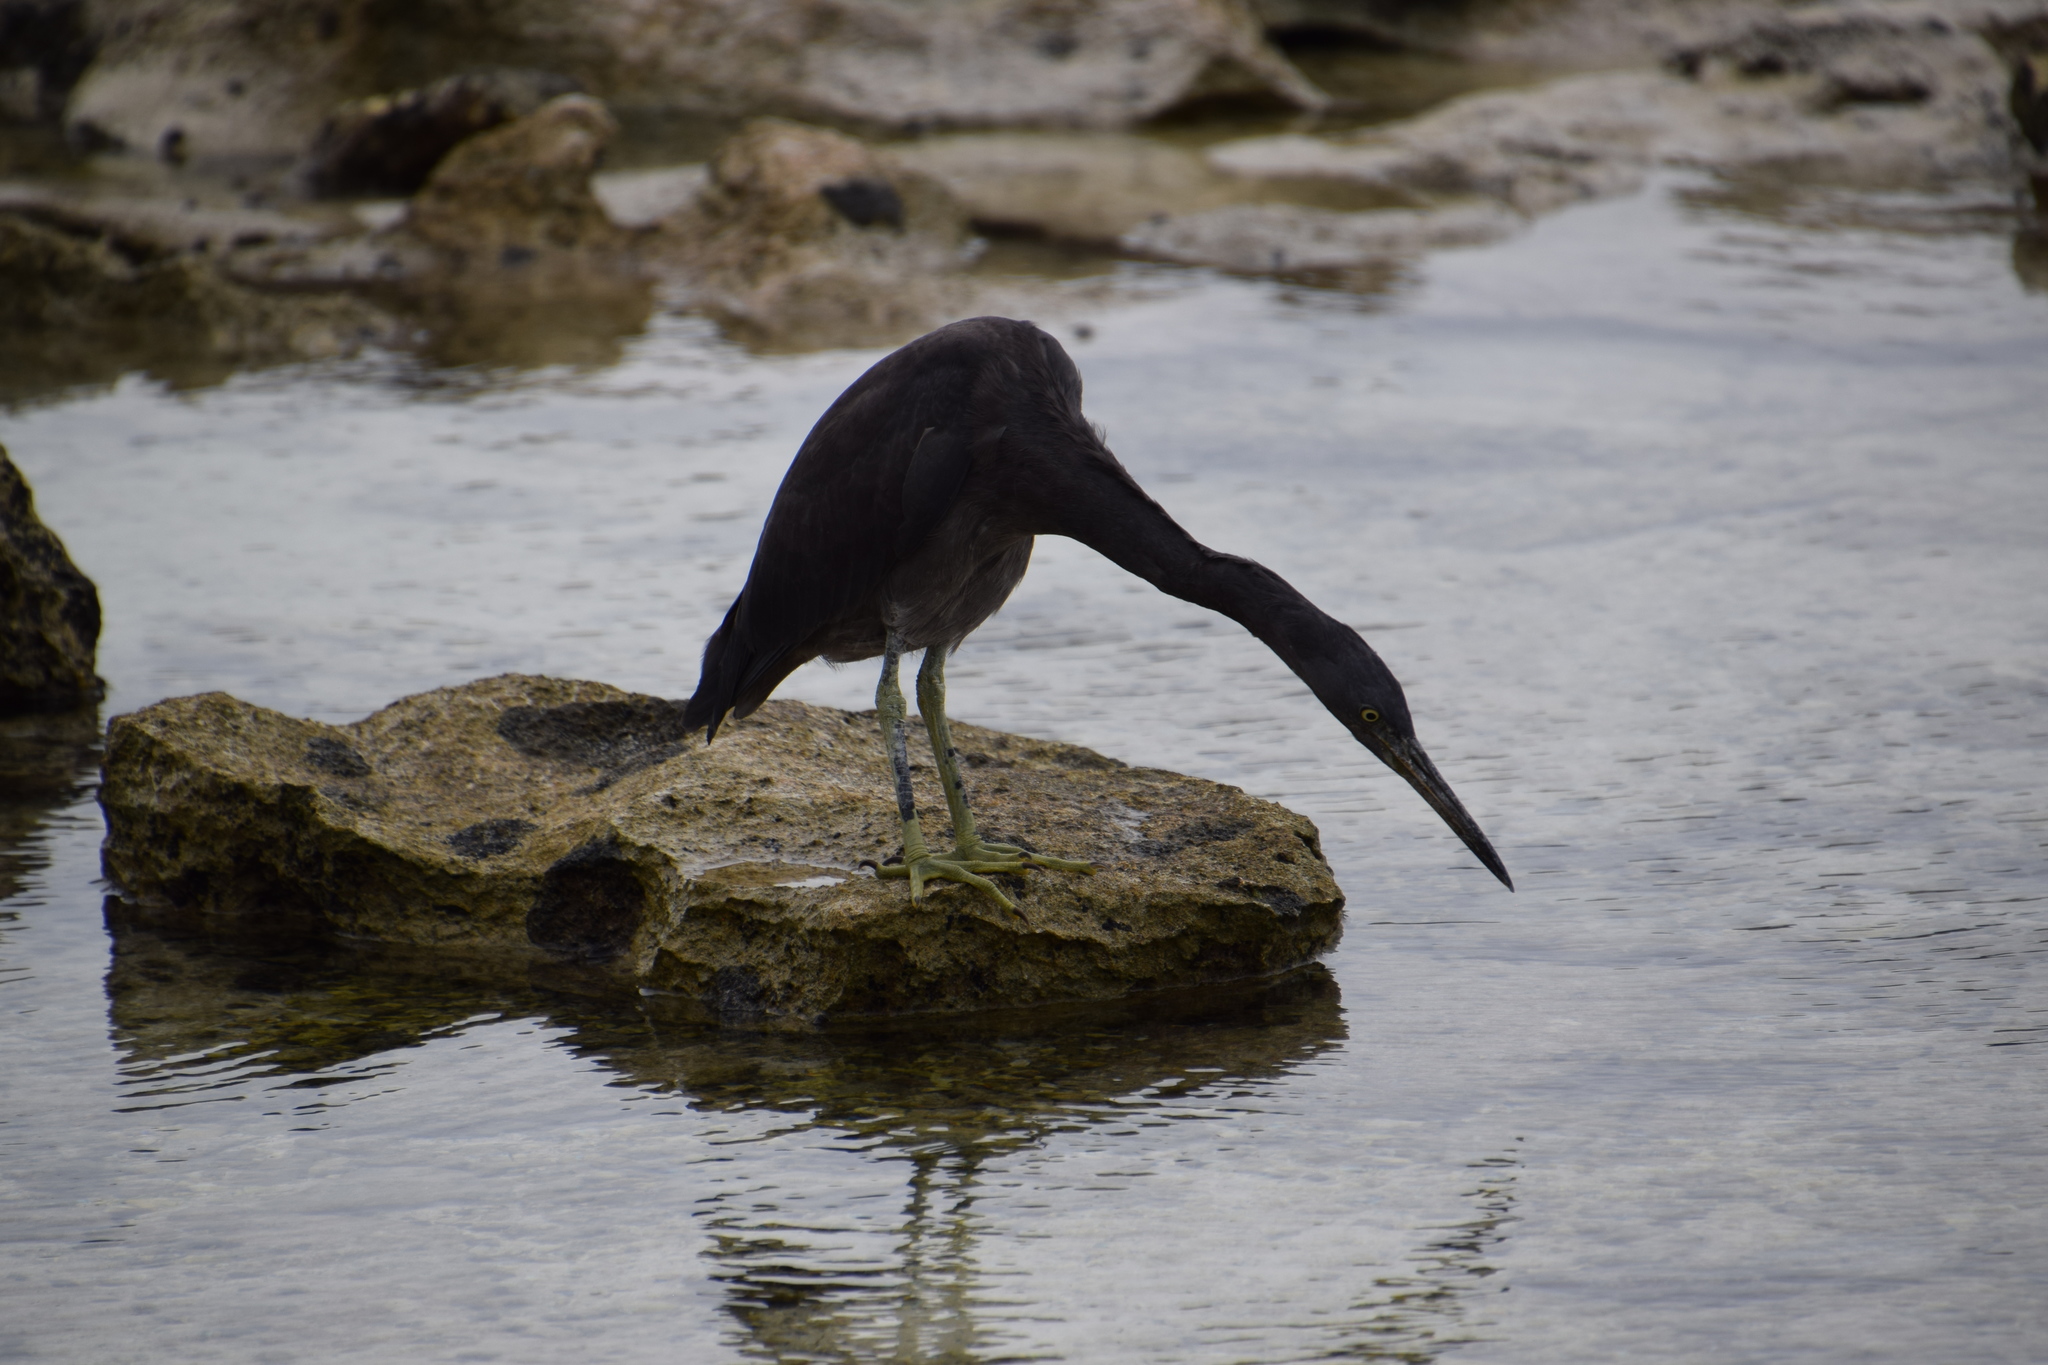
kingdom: Animalia
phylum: Chordata
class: Aves
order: Pelecaniformes
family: Ardeidae
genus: Egretta
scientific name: Egretta sacra
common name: Pacific reef heron
